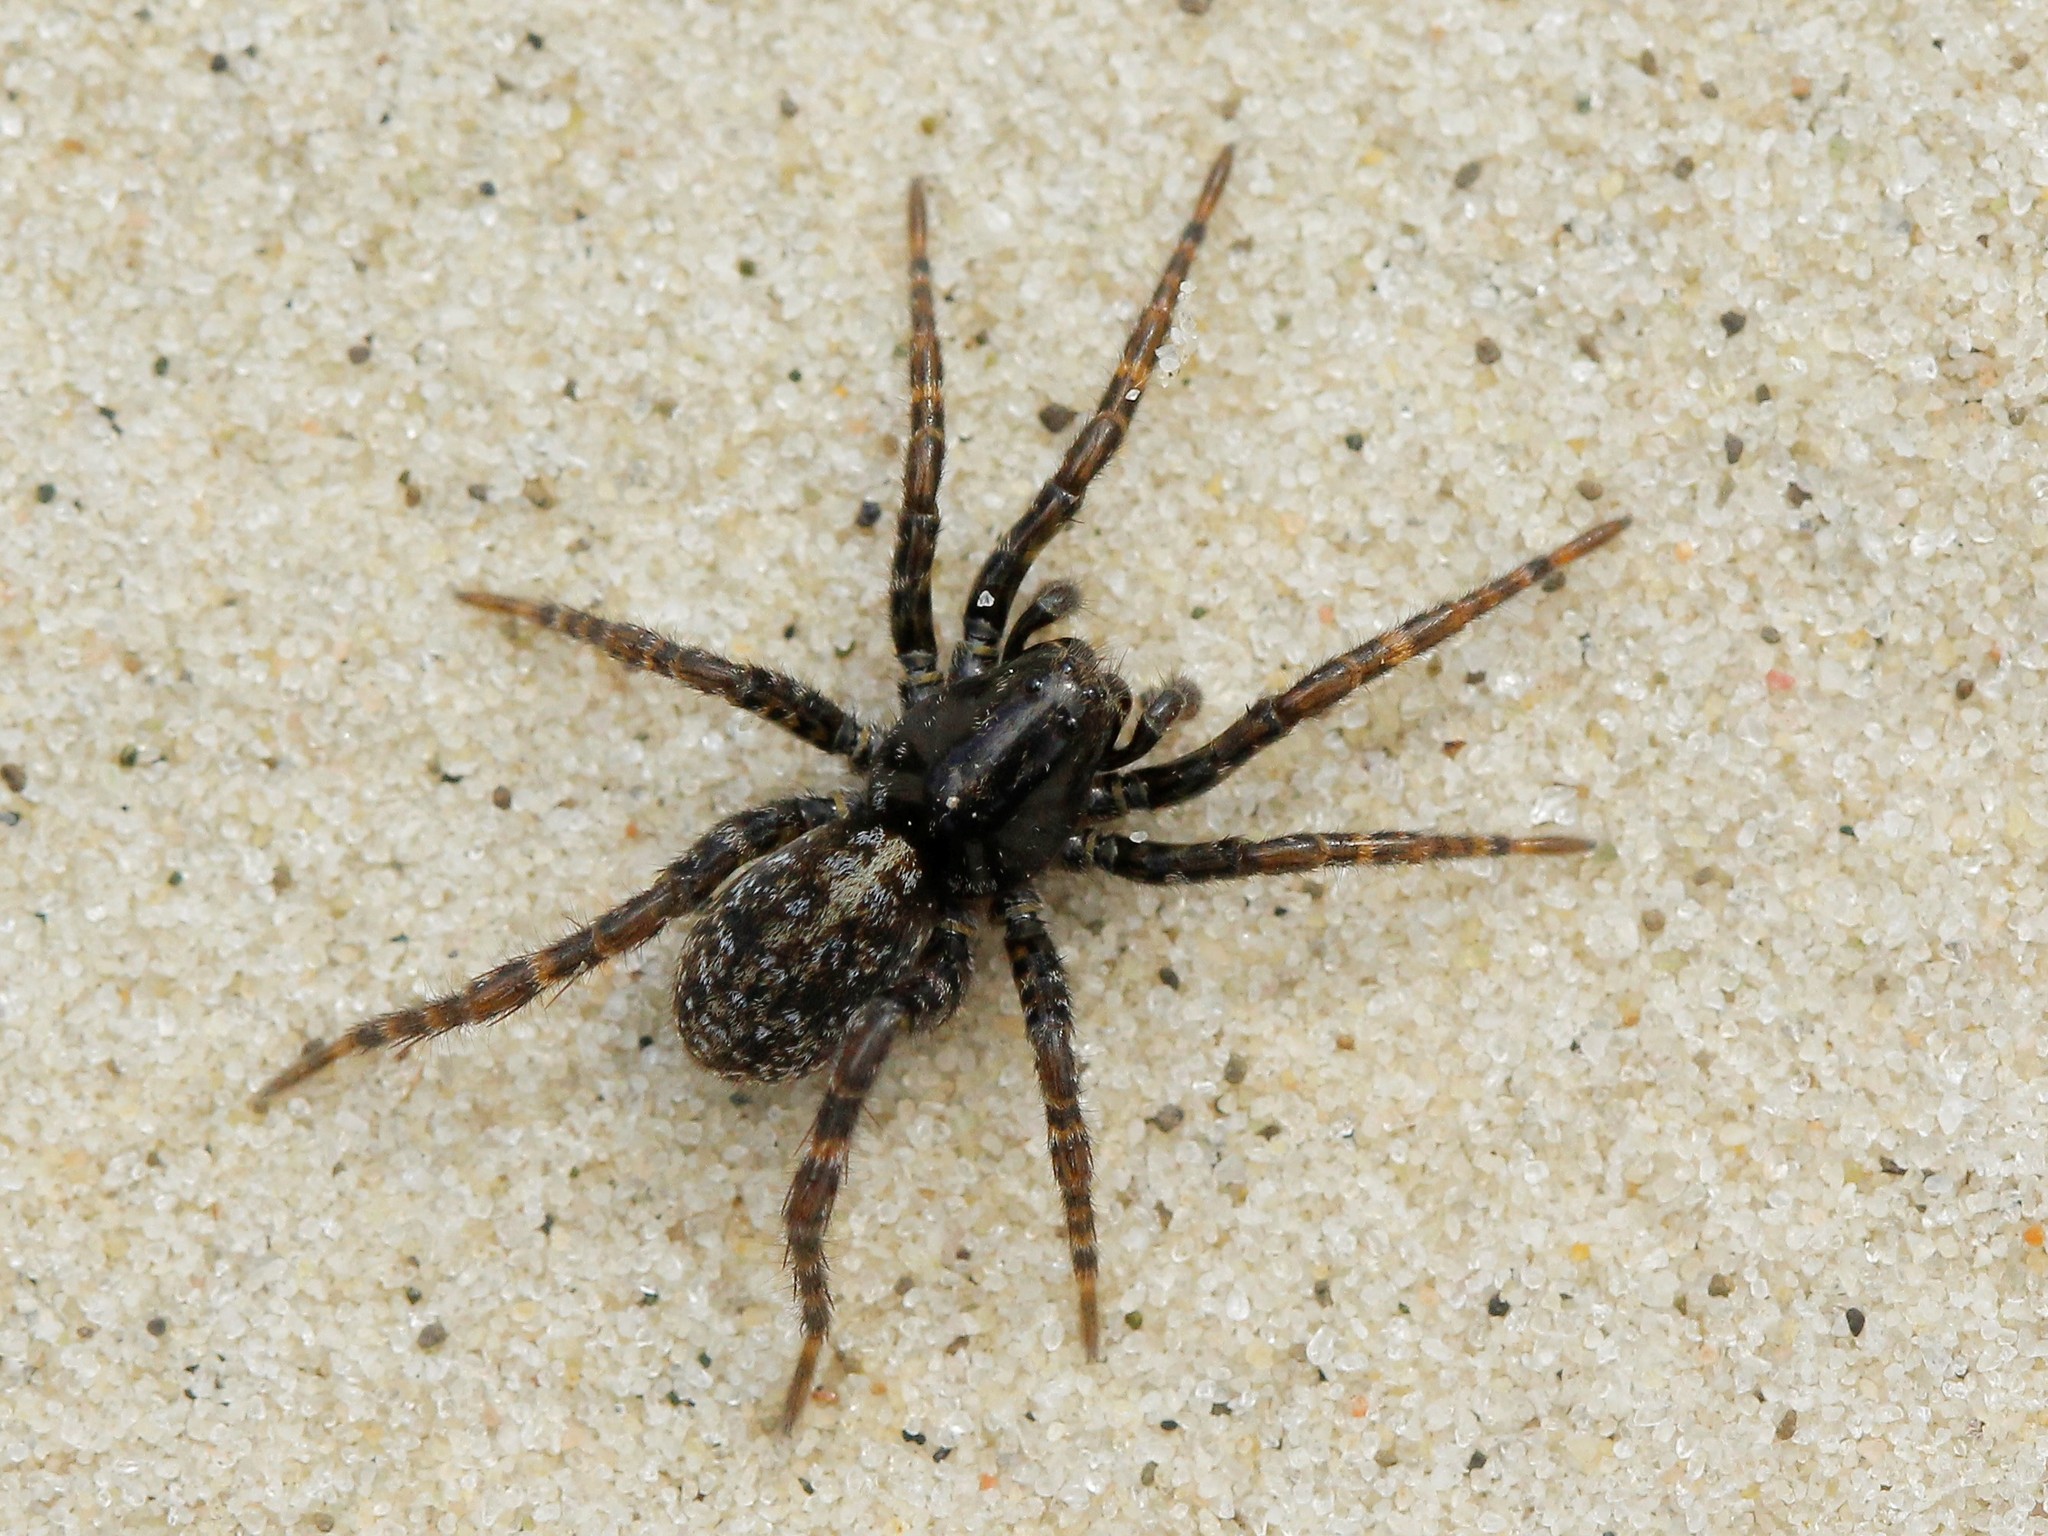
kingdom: Animalia
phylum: Arthropoda
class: Arachnida
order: Araneae
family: Lycosidae
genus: Arctosa
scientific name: Arctosa leopardus
